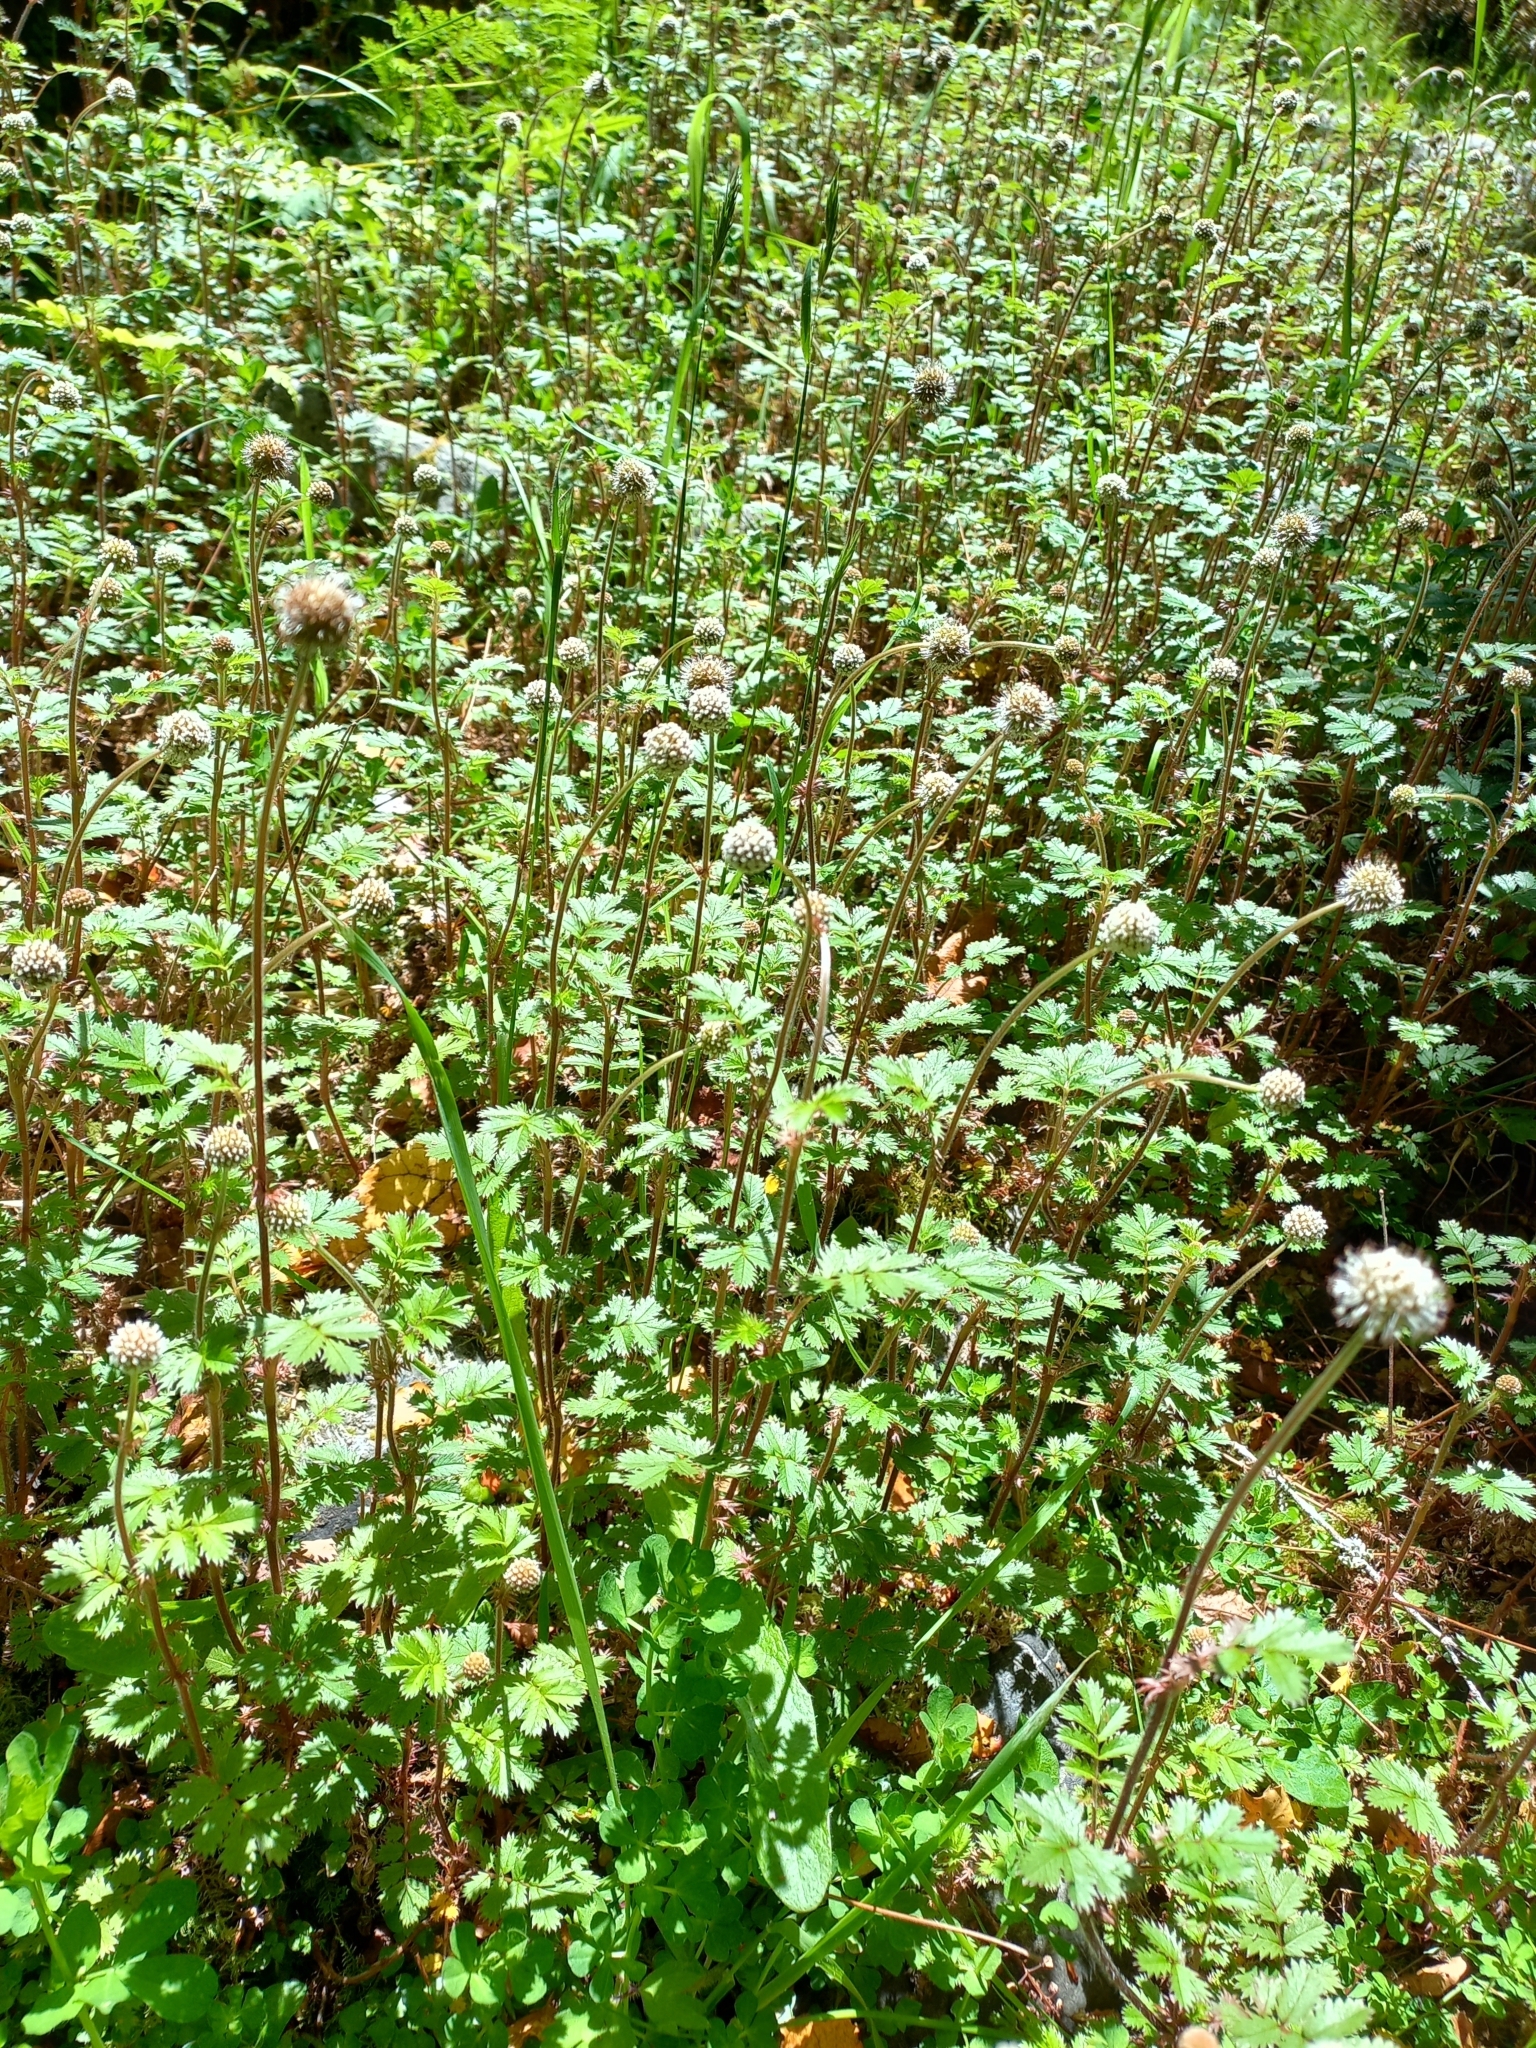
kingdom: Plantae
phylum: Tracheophyta
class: Magnoliopsida
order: Rosales
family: Rosaceae
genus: Acaena
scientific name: Acaena anserinifolia
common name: Bronze pirri-pirri-bur
